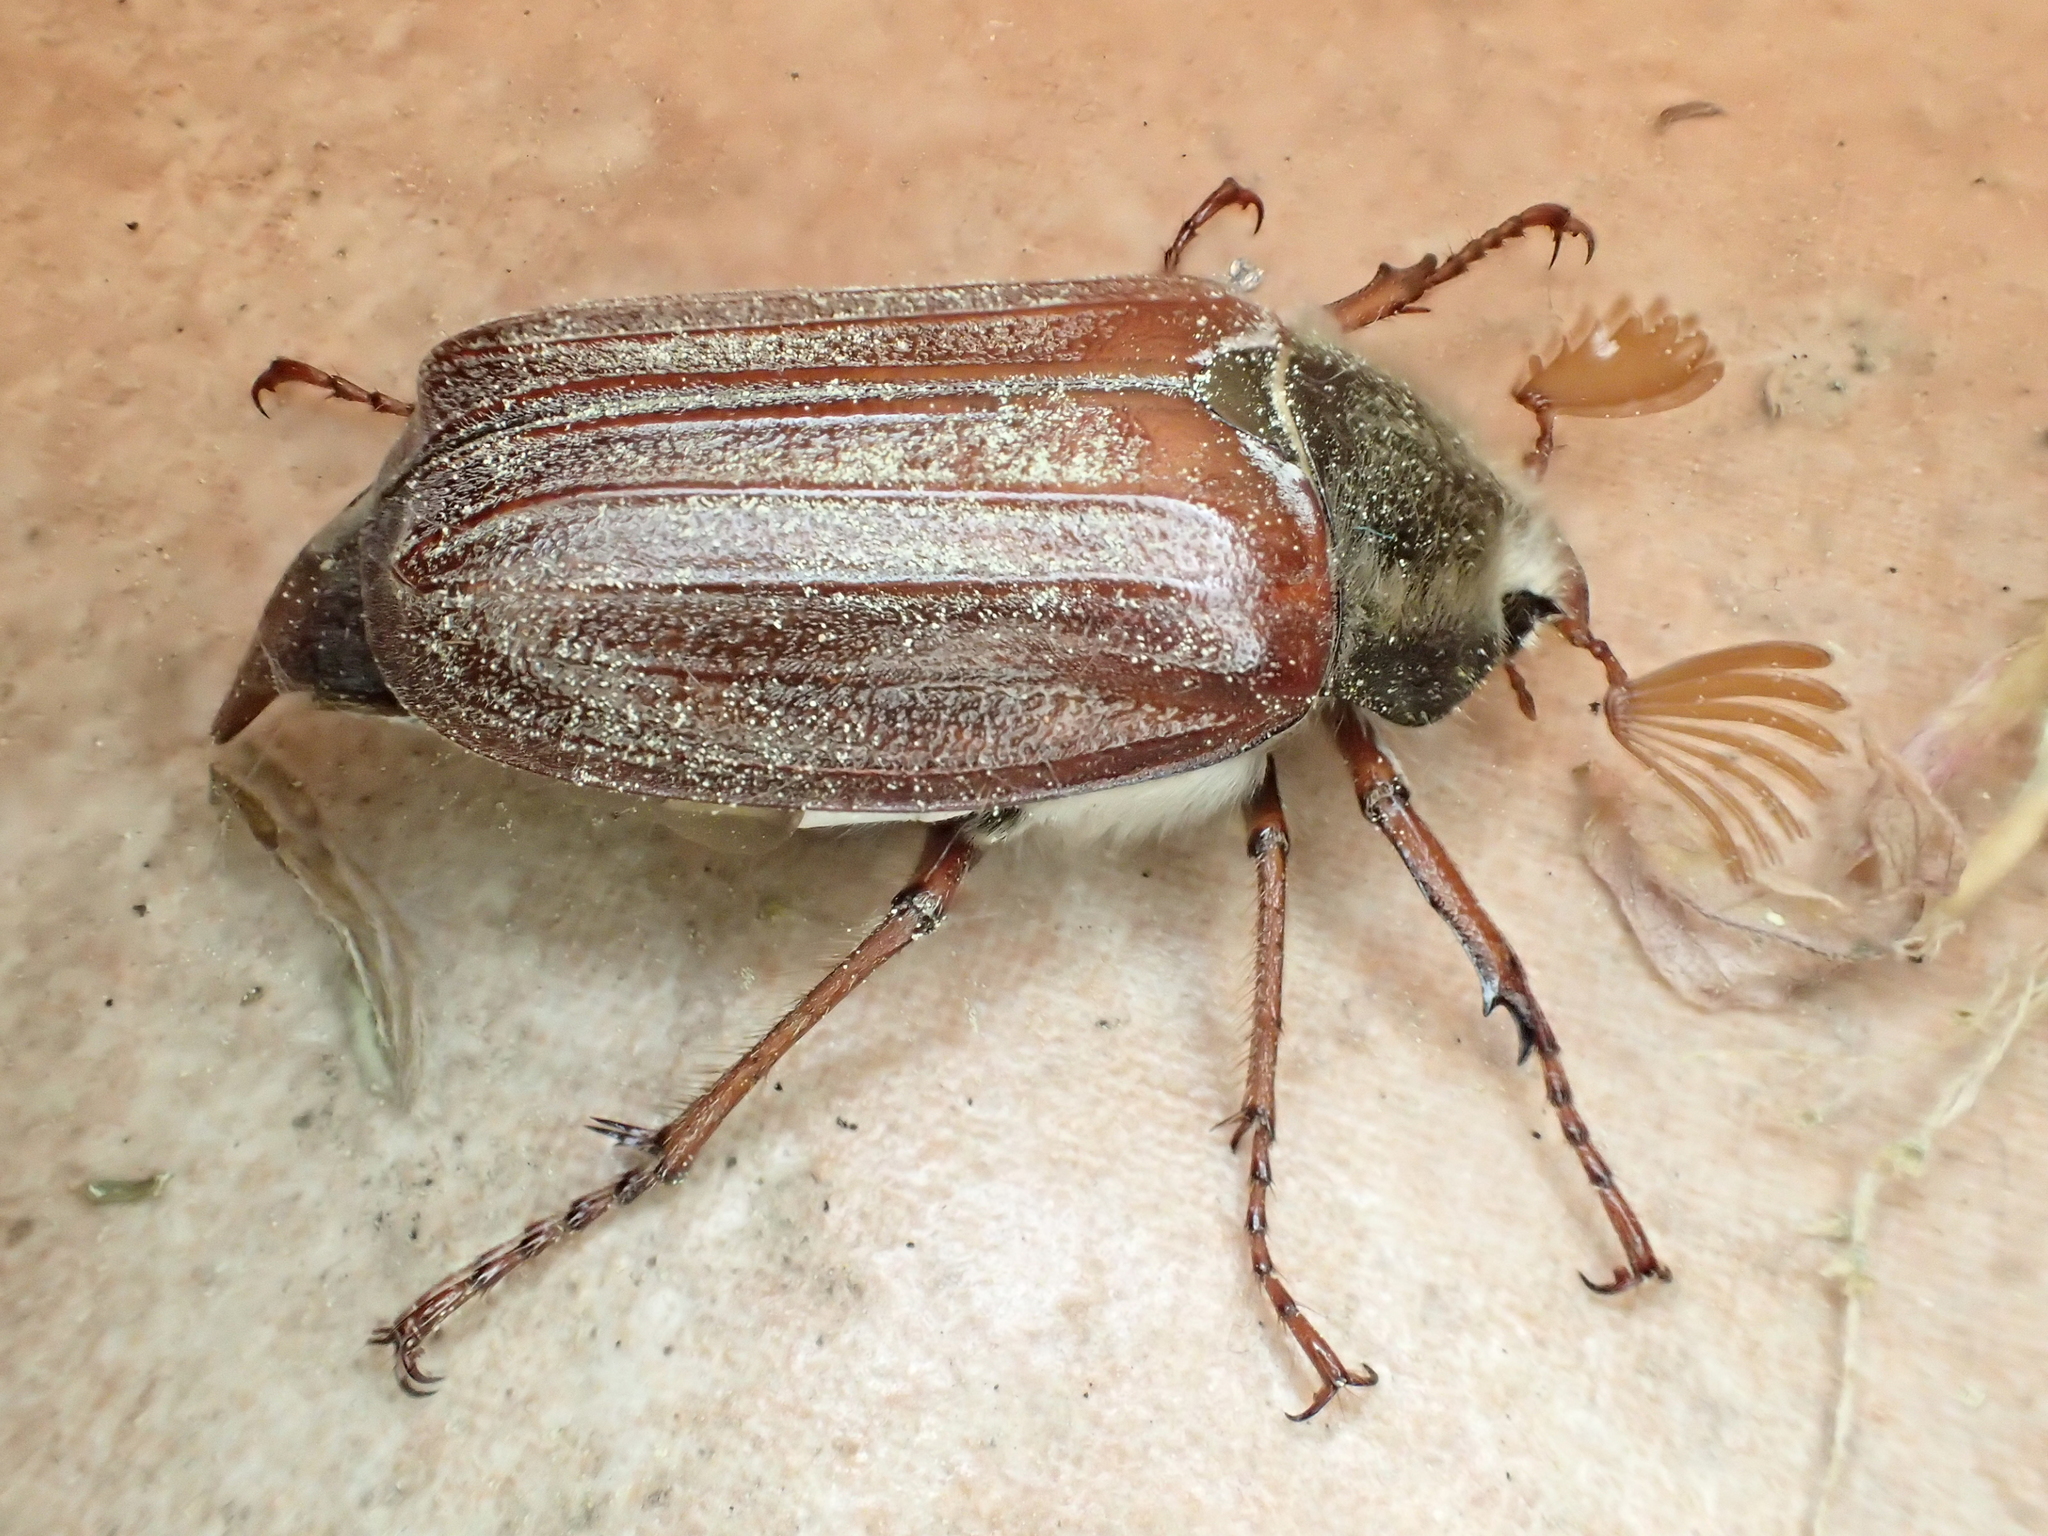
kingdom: Animalia
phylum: Arthropoda
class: Insecta
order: Coleoptera
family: Scarabaeidae
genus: Melolontha
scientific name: Melolontha melolontha
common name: Cockchafer maybeetle
